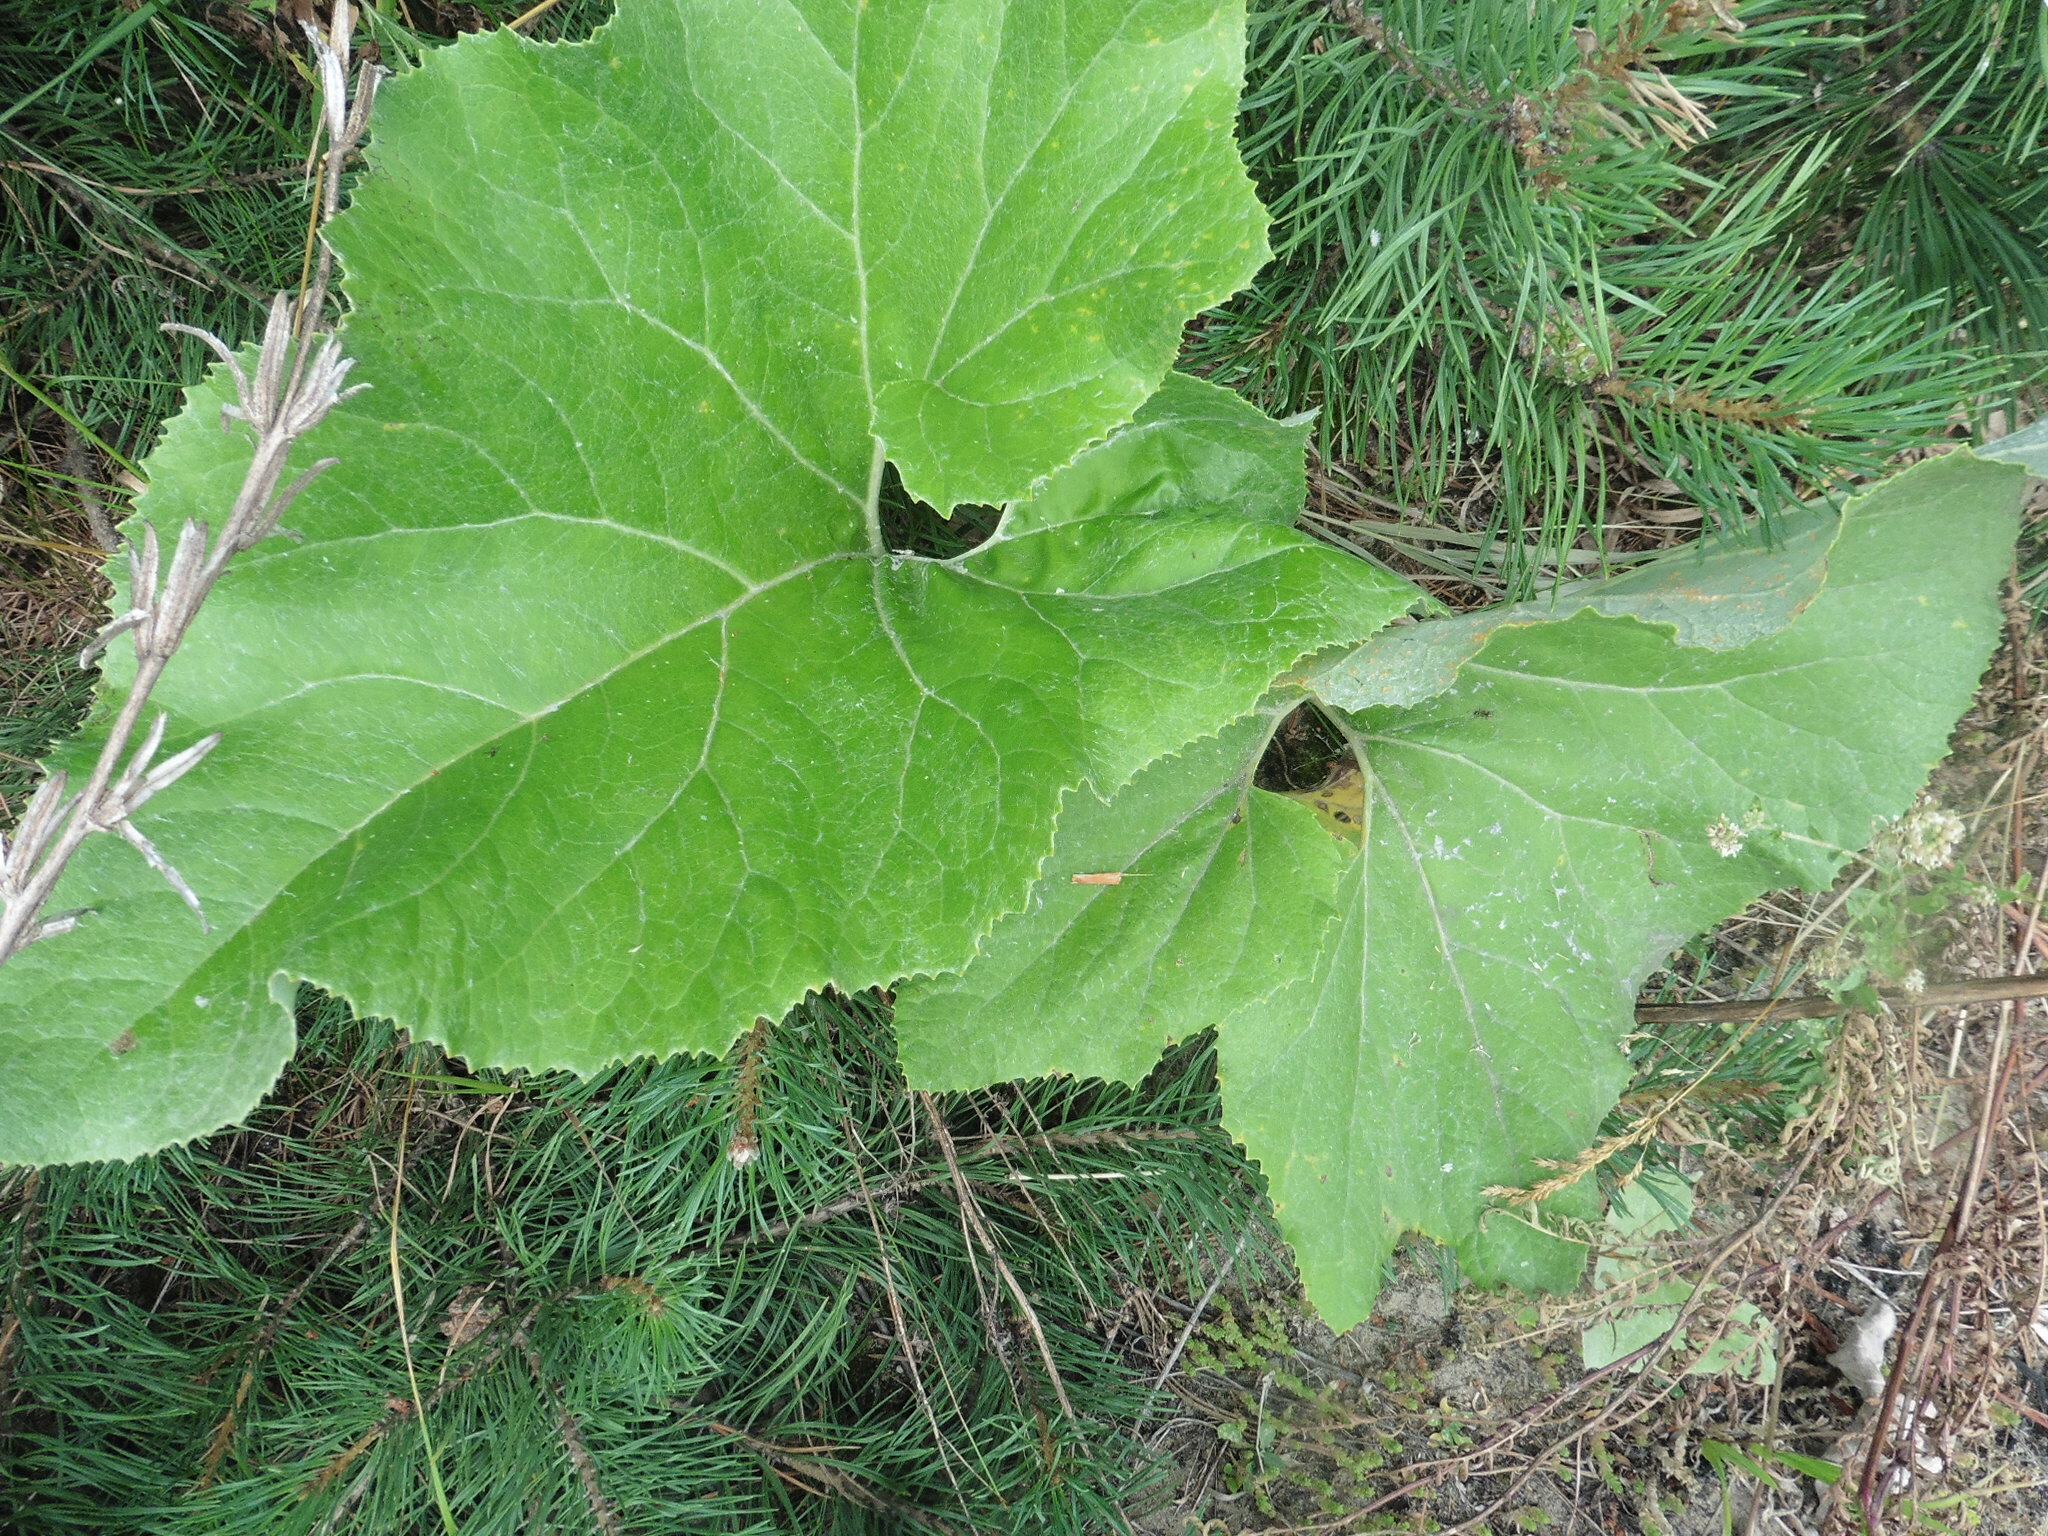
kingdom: Plantae
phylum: Tracheophyta
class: Magnoliopsida
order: Asterales
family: Asteraceae
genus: Petasites
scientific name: Petasites spurius
